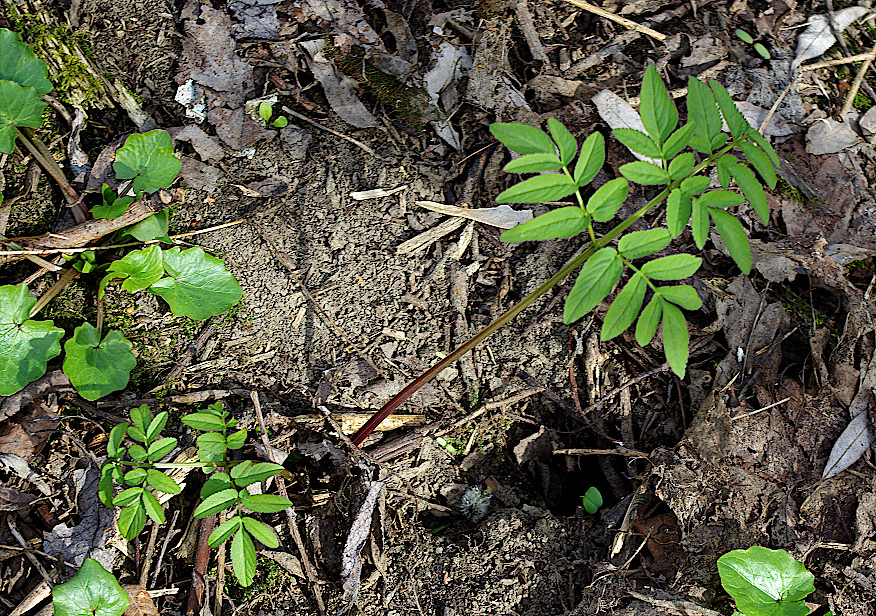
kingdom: Plantae
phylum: Tracheophyta
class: Magnoliopsida
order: Apiales
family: Apiaceae
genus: Angelica
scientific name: Angelica sylvestris
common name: Wild angelica
